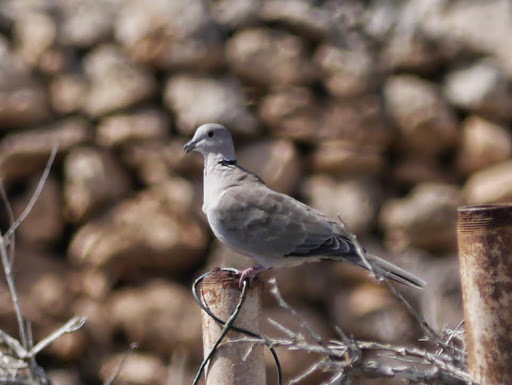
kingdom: Animalia
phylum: Chordata
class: Aves
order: Columbiformes
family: Columbidae
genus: Streptopelia
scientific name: Streptopelia decaocto
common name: Eurasian collared dove
